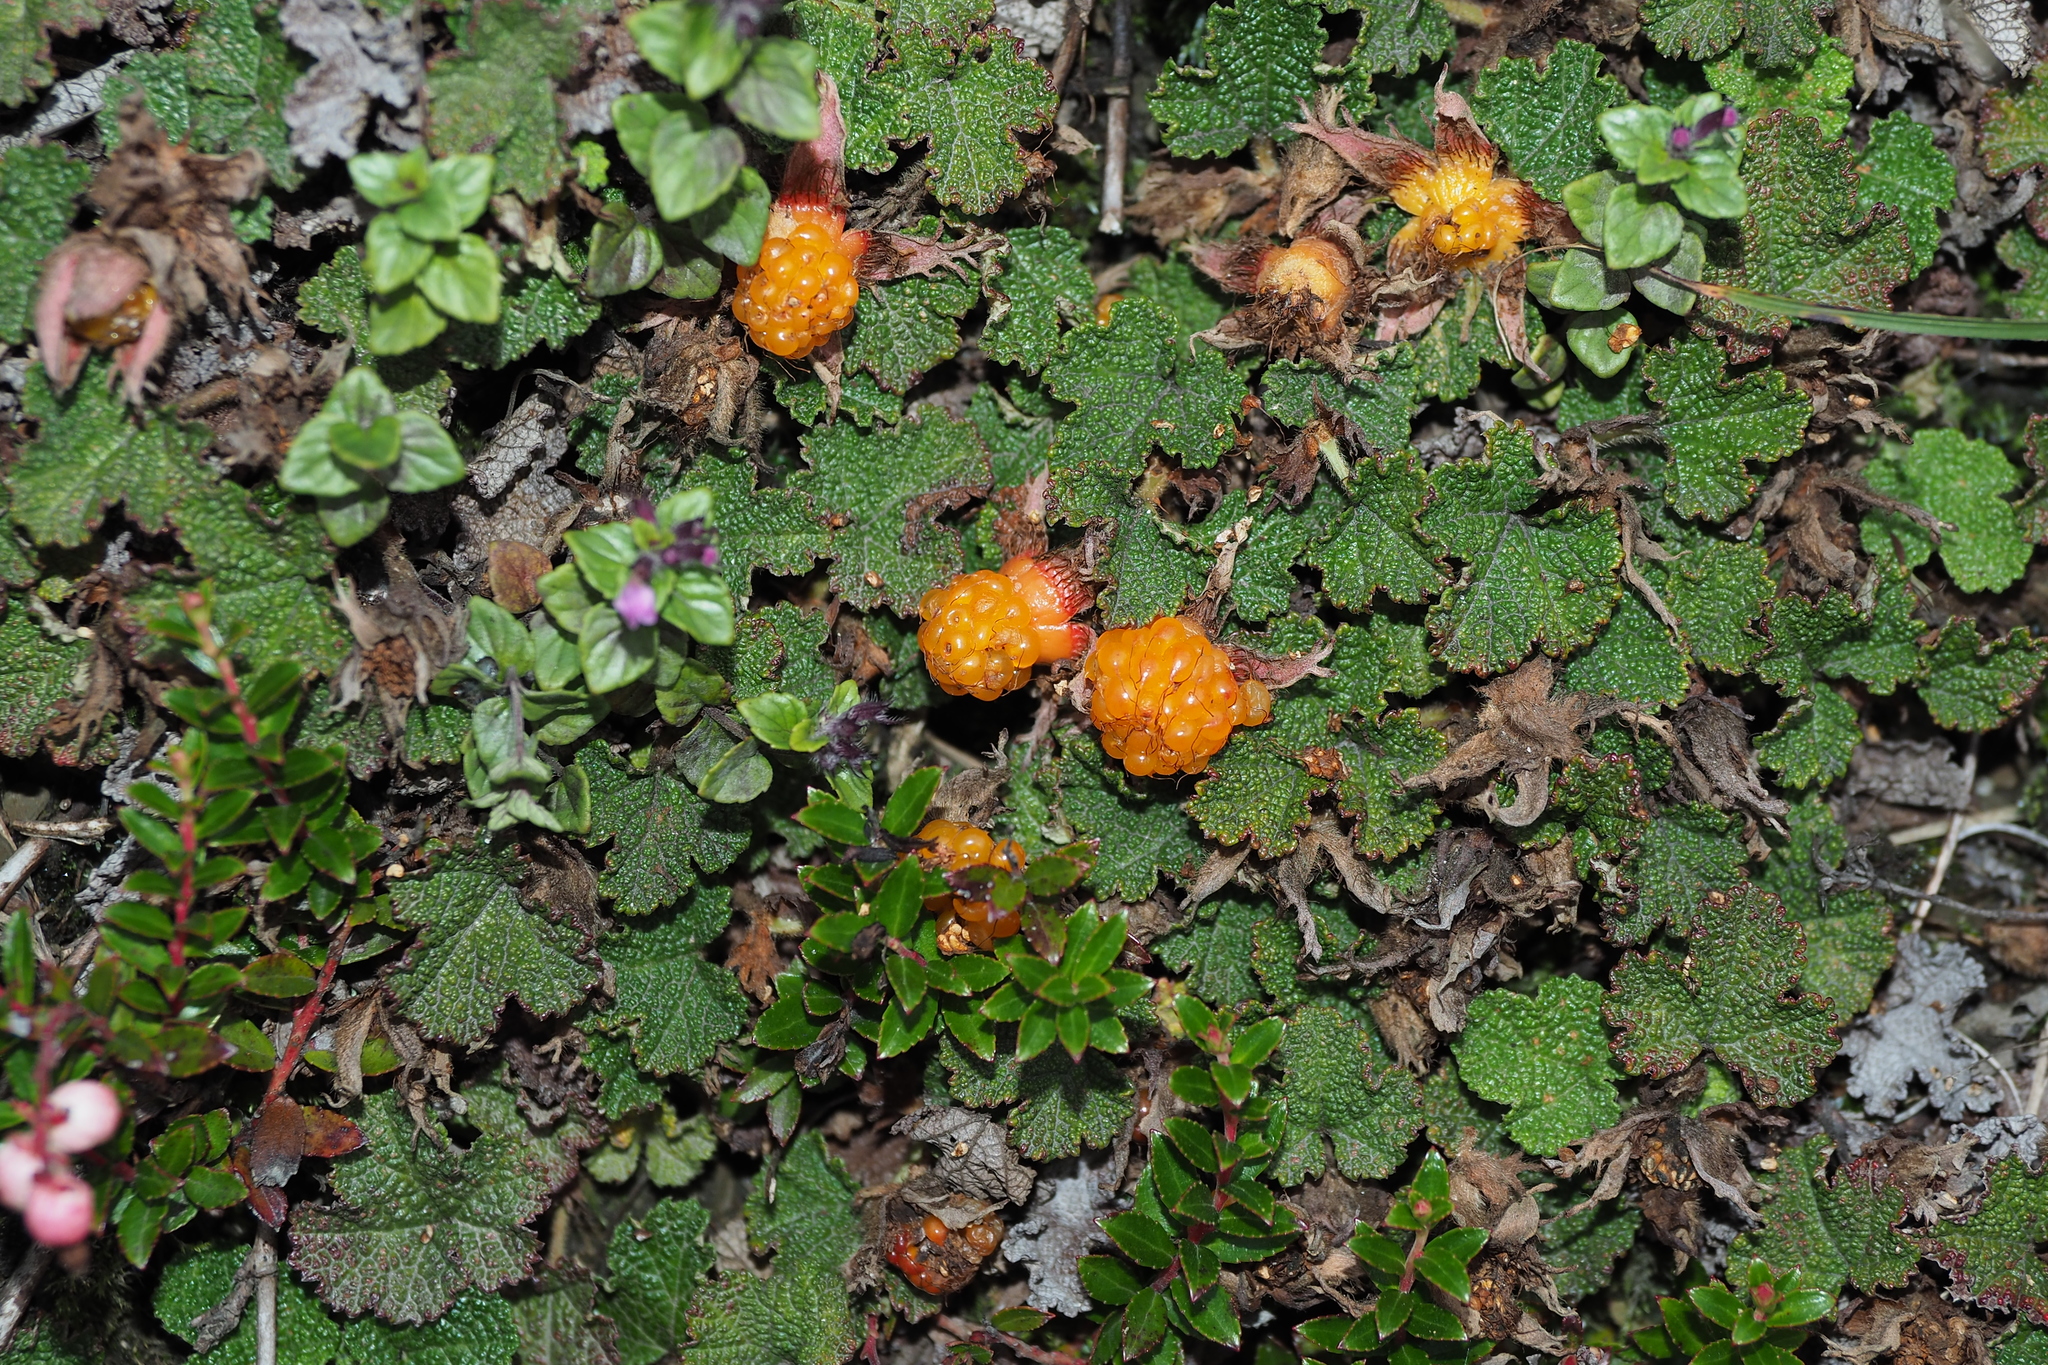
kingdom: Plantae
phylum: Tracheophyta
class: Magnoliopsida
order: Rosales
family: Rosaceae
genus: Rubus
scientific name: Rubus rolfei
